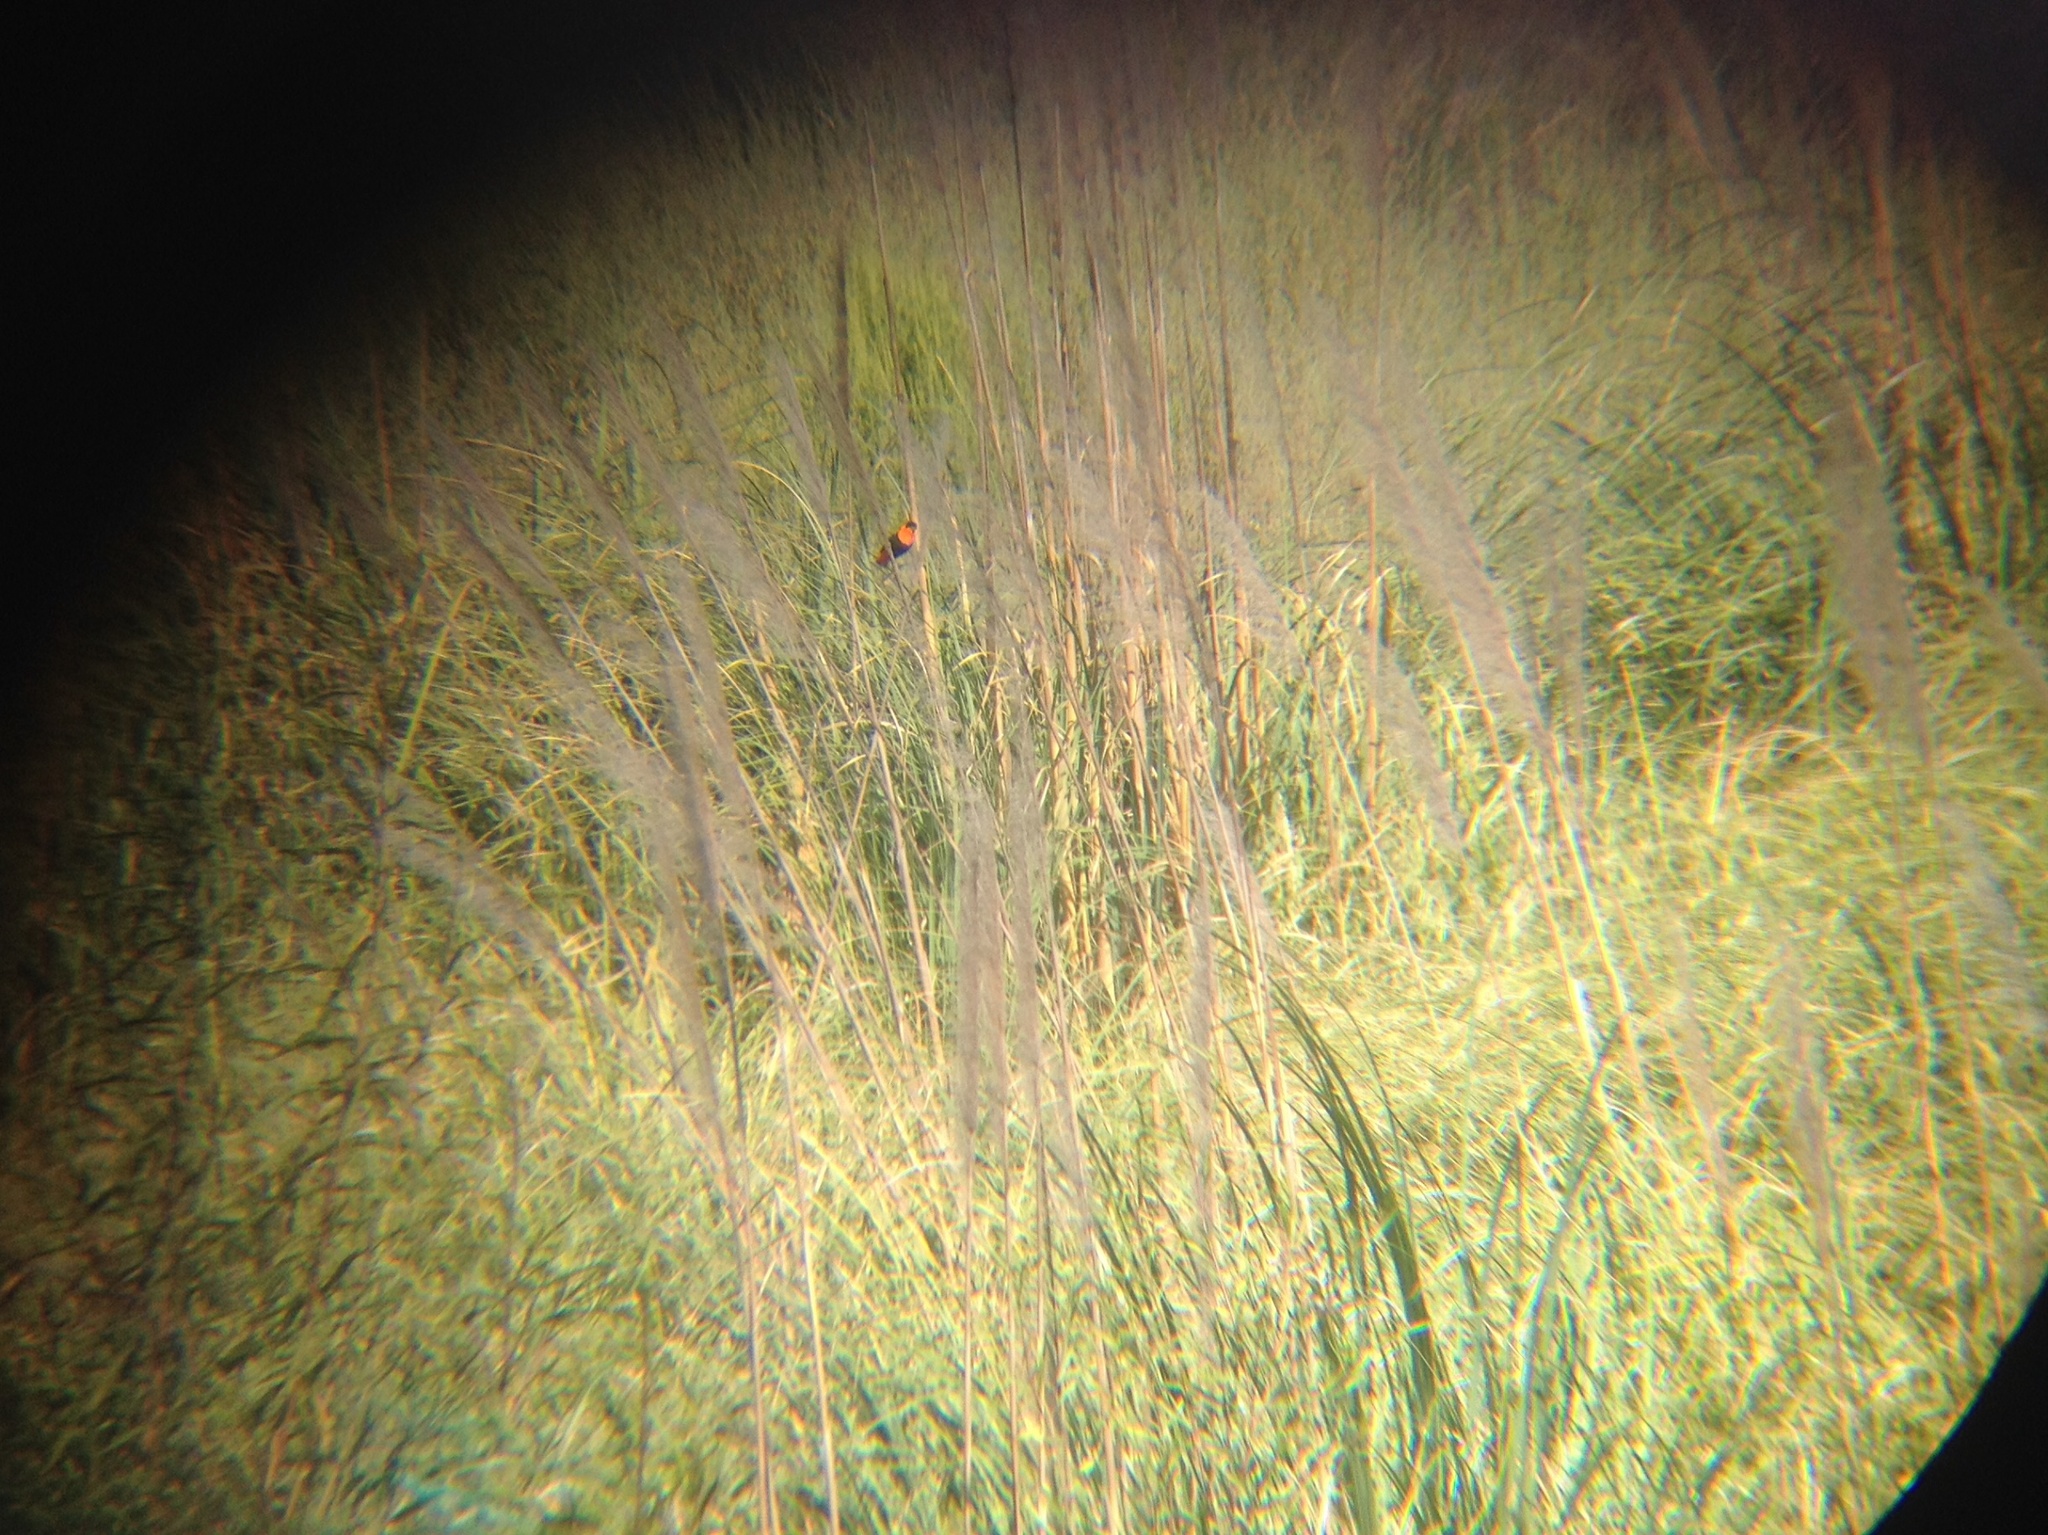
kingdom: Animalia
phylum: Chordata
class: Aves
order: Passeriformes
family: Ploceidae
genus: Euplectes
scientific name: Euplectes franciscanus
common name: Northern red bishop
